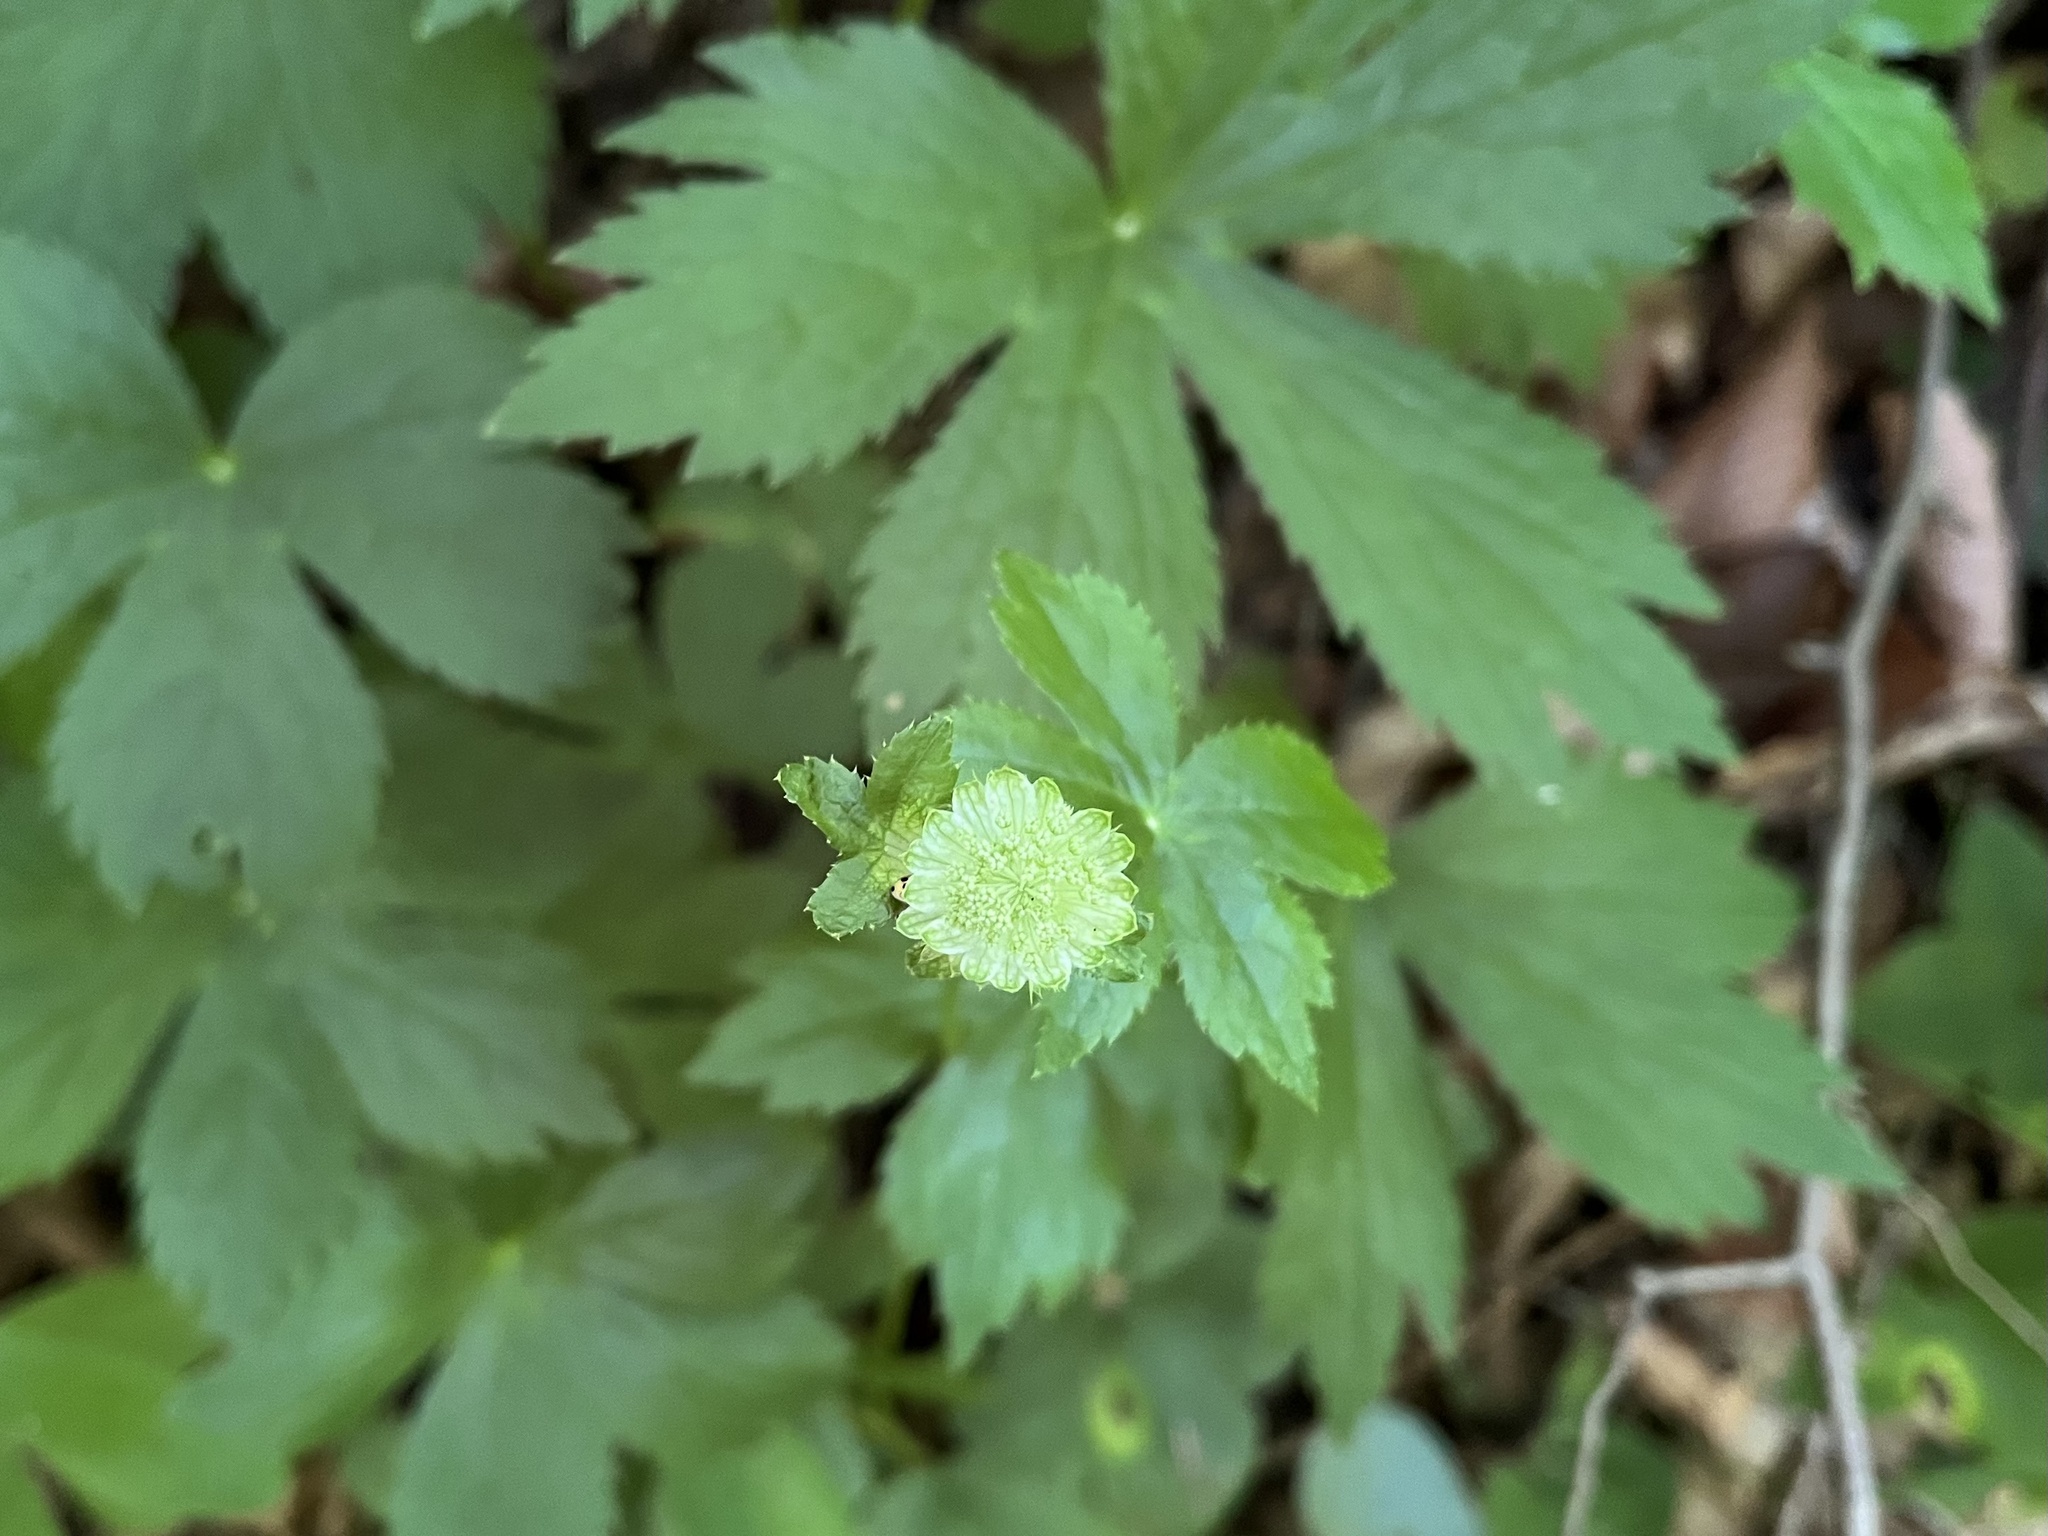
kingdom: Plantae
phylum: Tracheophyta
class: Magnoliopsida
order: Apiales
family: Apiaceae
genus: Astrantia
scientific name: Astrantia major
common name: Greater masterwort
